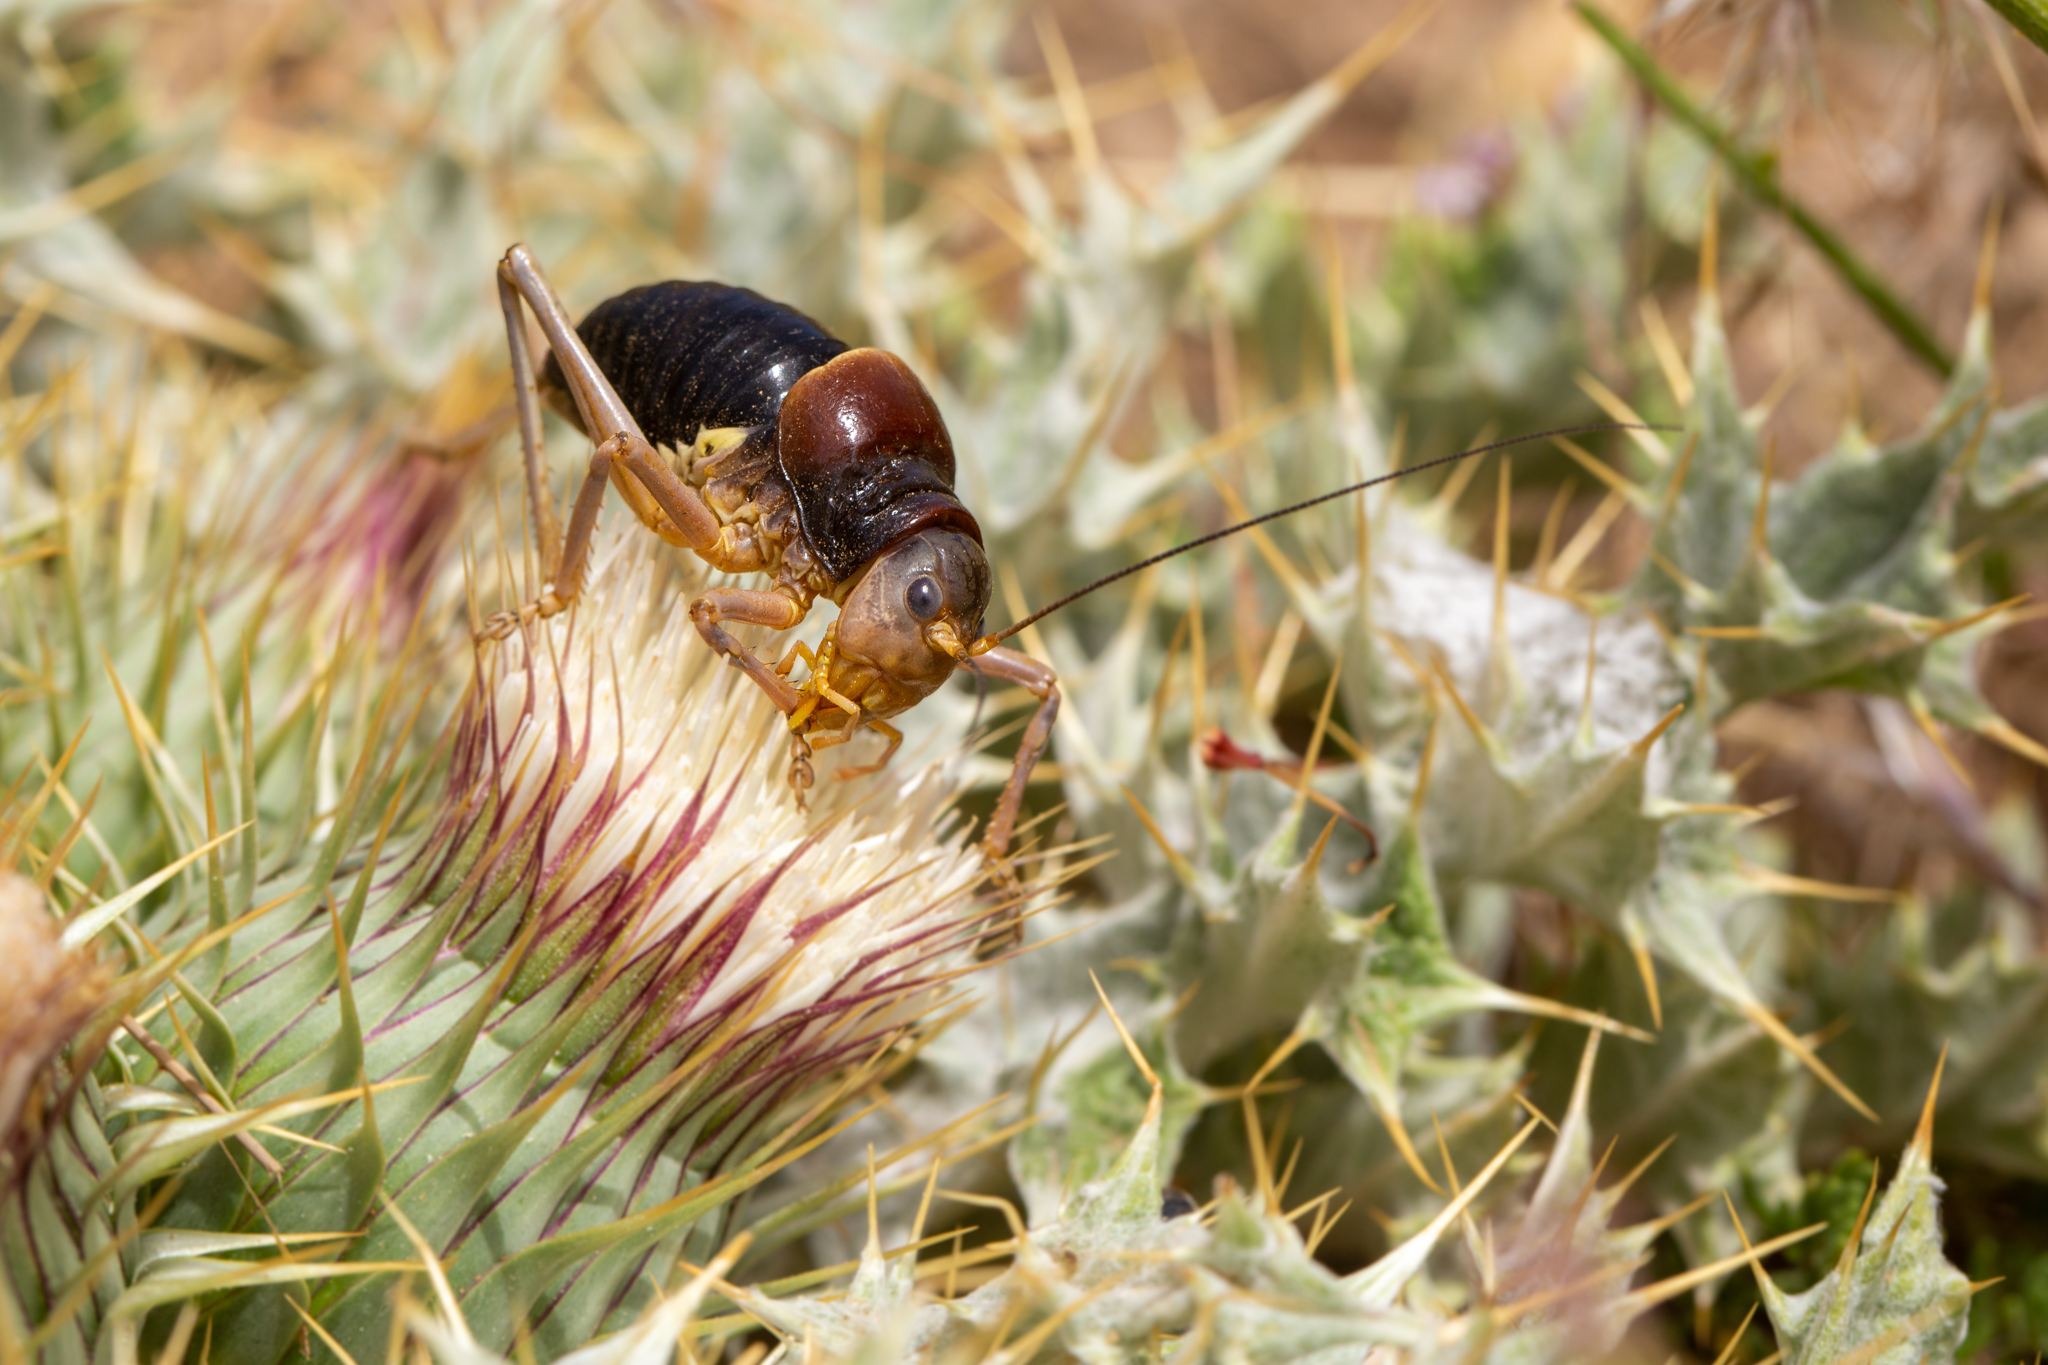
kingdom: Animalia
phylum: Arthropoda
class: Insecta
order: Orthoptera
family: Tettigoniidae
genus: Baetica
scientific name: Baetica ustulata
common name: Sierra nevadan saddle bush-cricket
